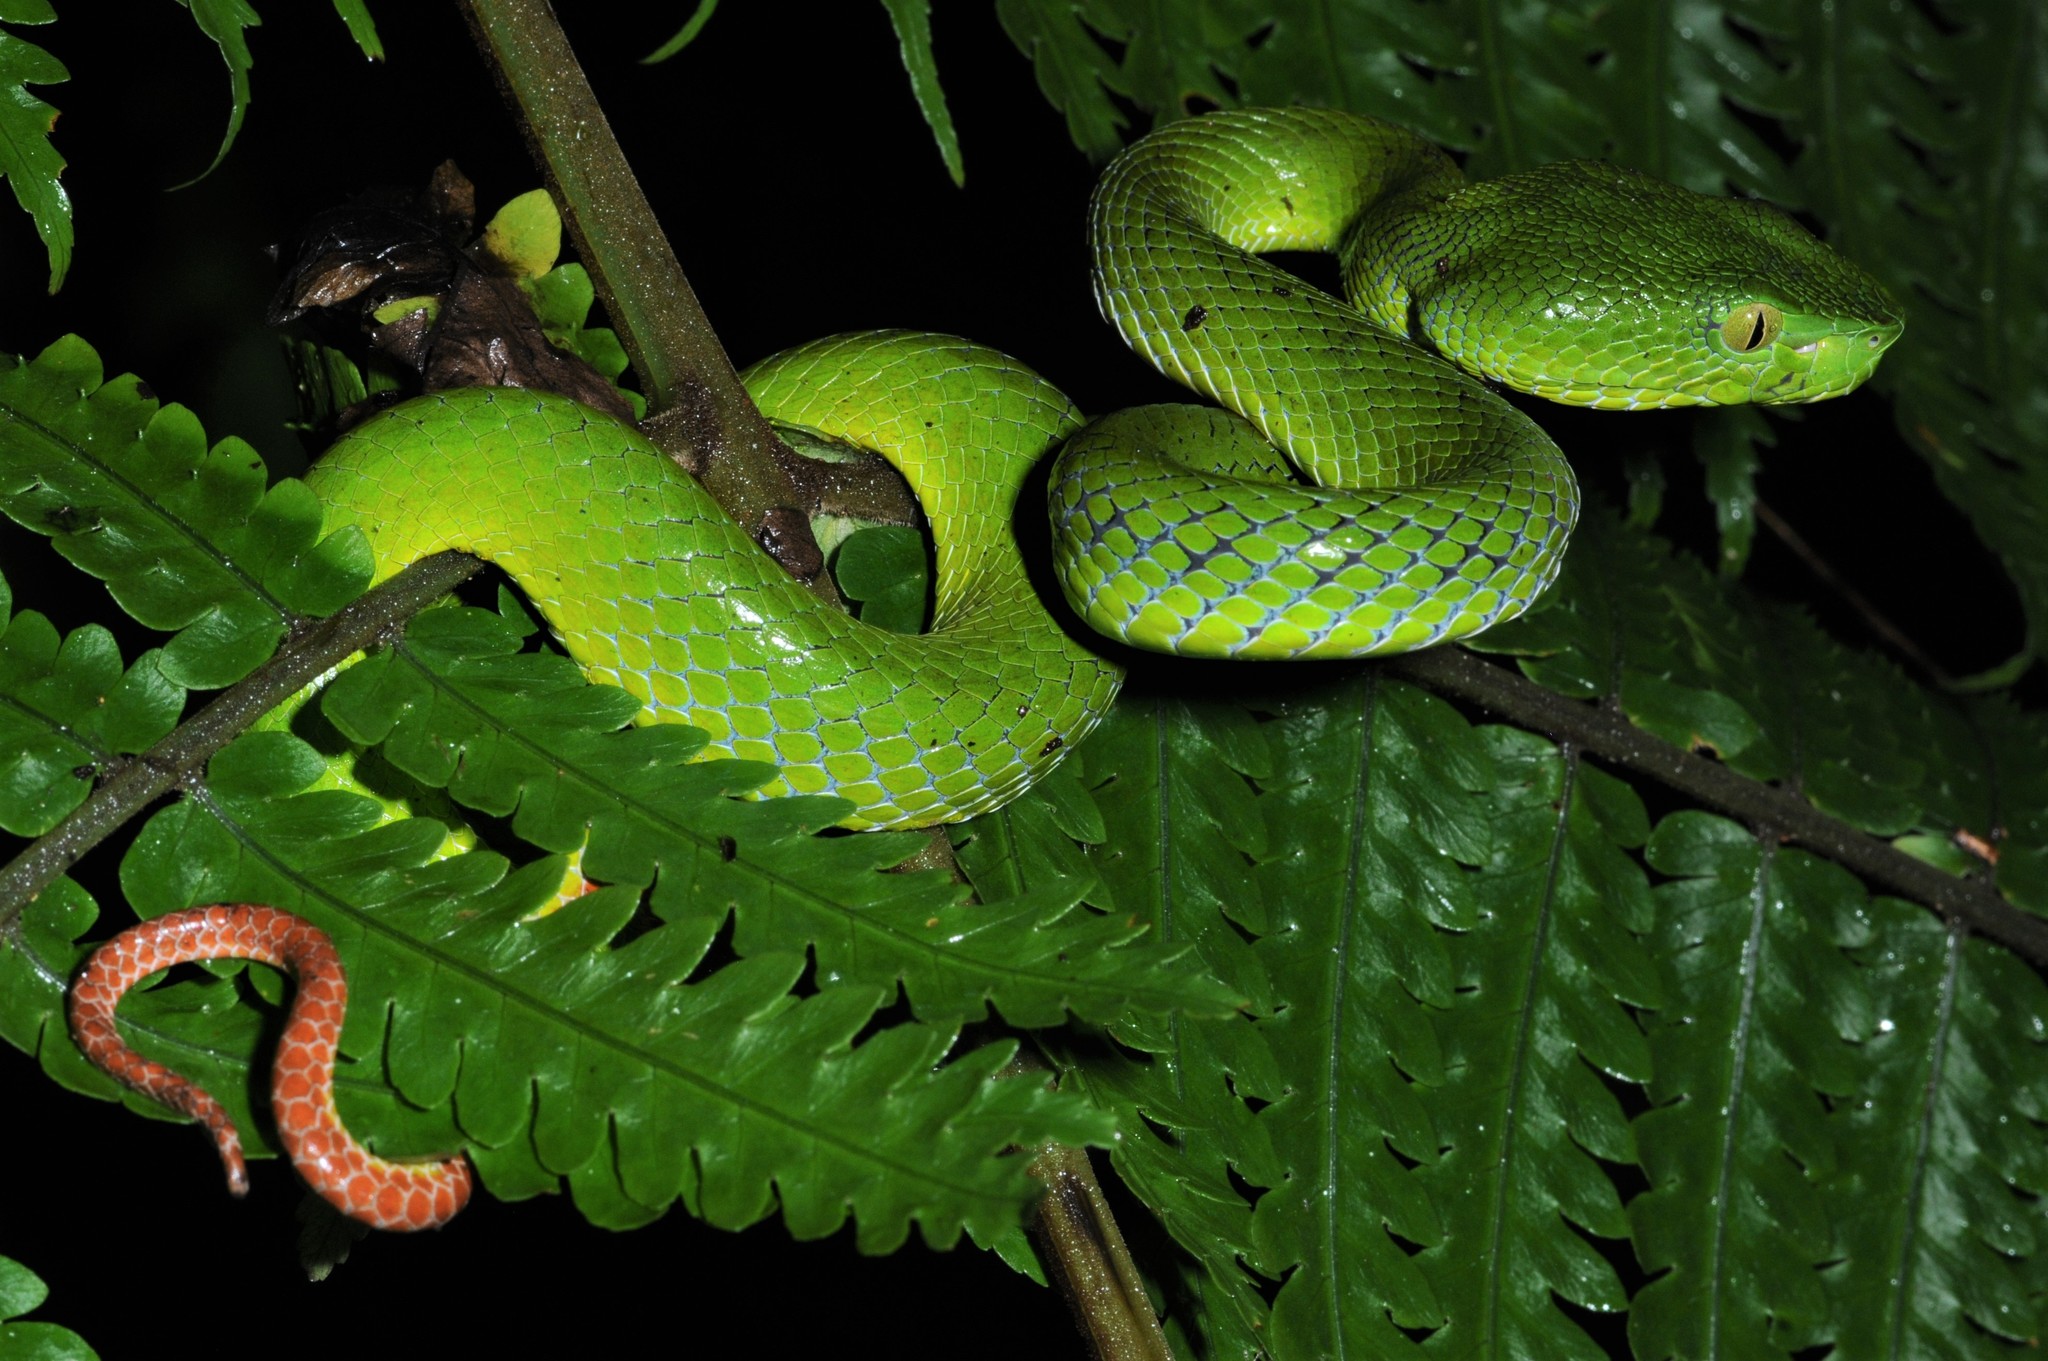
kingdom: Animalia
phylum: Chordata
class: Squamata
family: Viperidae
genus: Trimeresurus
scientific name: Trimeresurus sabahi
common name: Sabah bamboo pit viper
